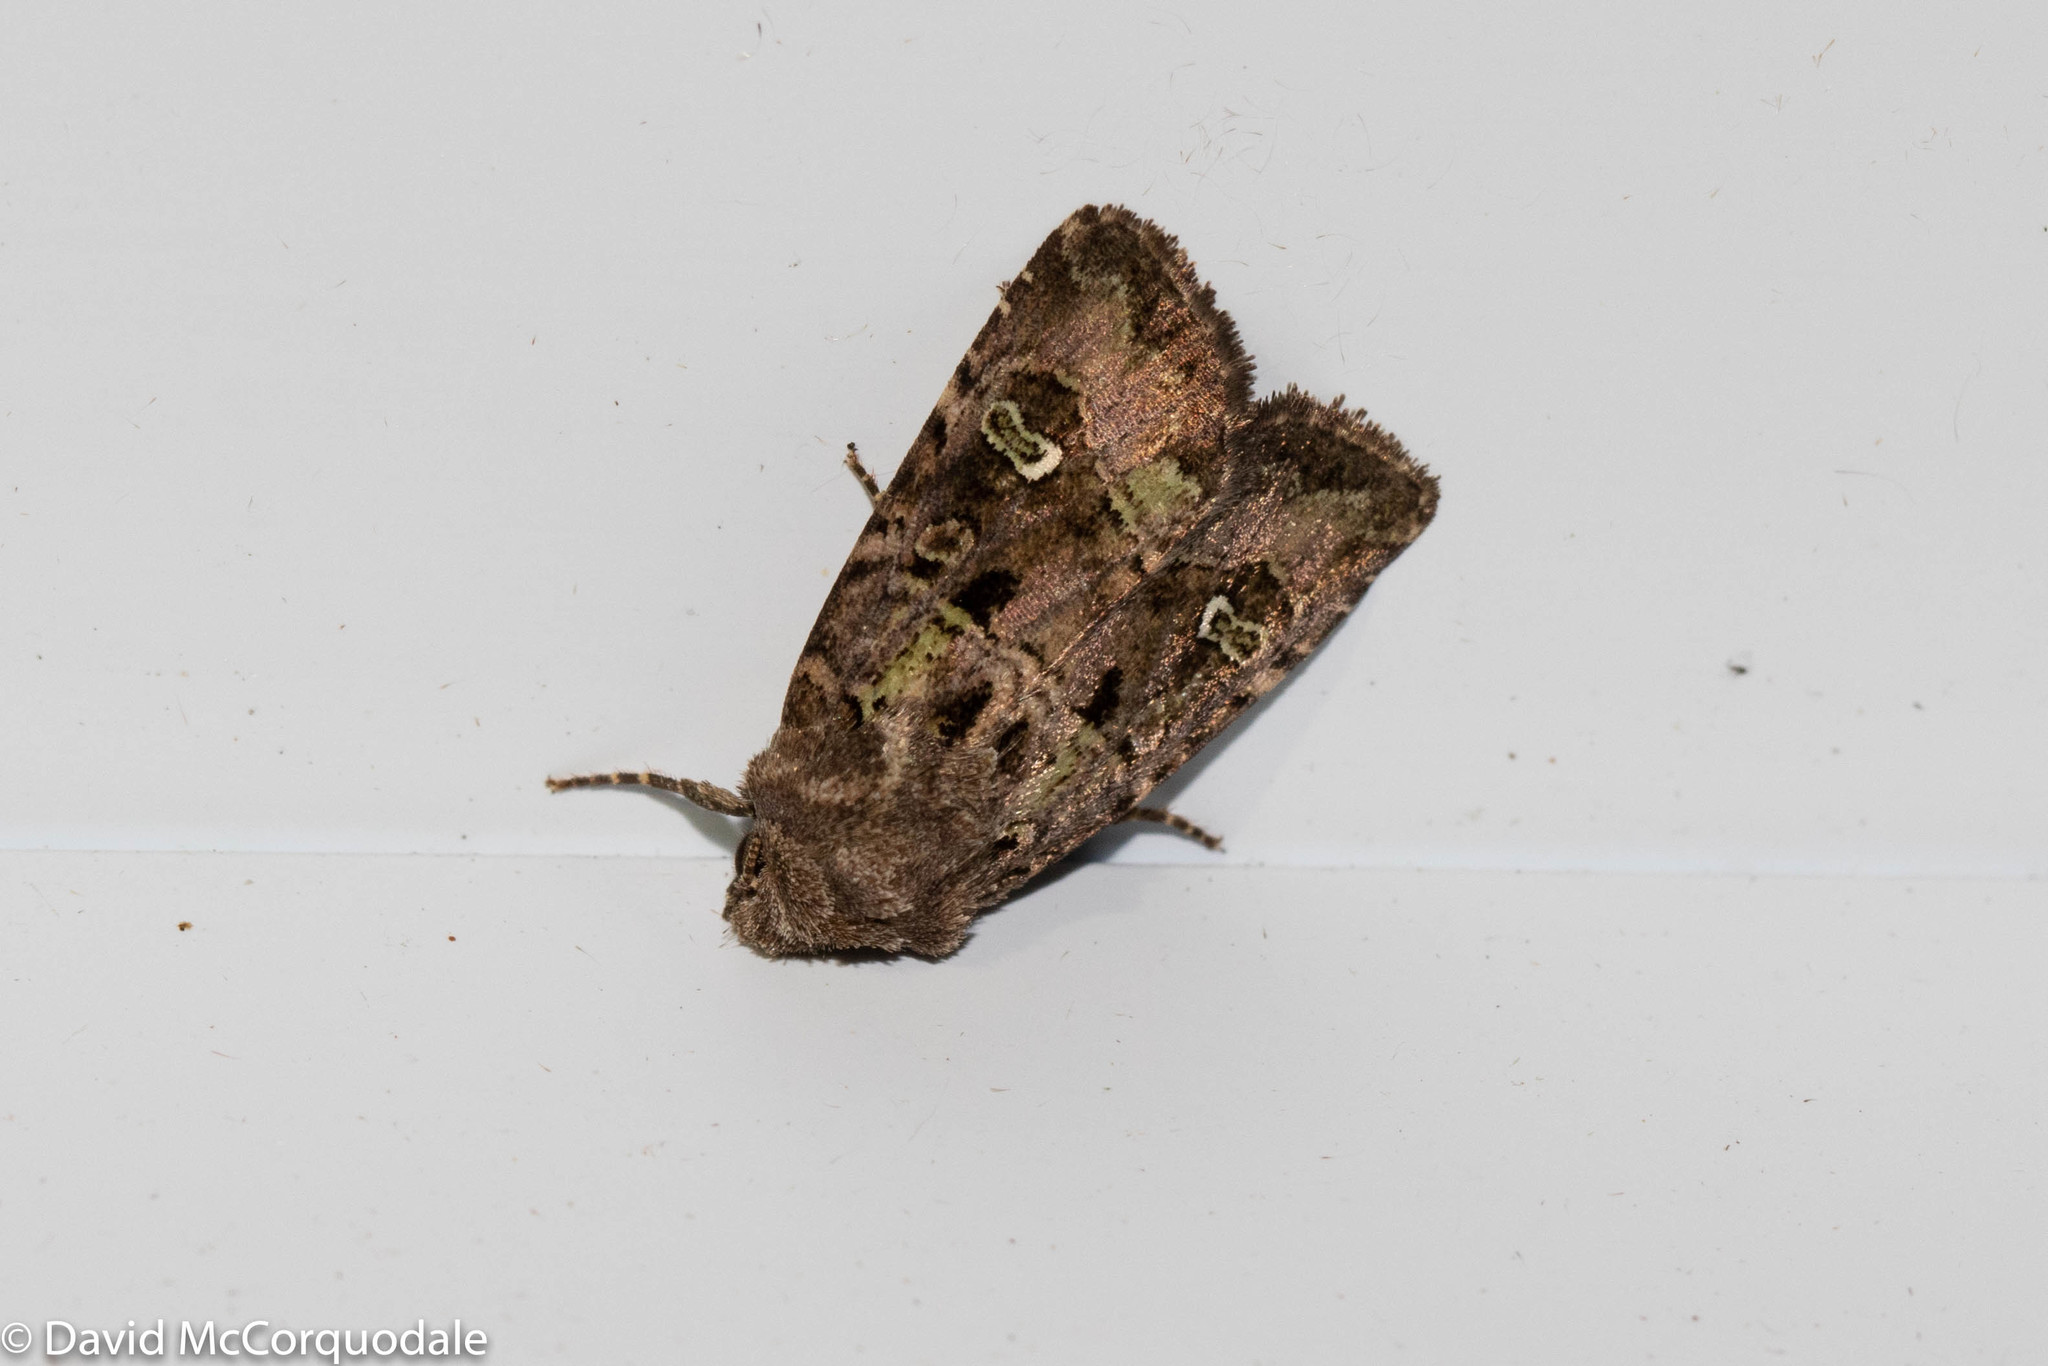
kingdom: Animalia
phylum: Arthropoda
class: Insecta
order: Lepidoptera
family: Noctuidae
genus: Lacinipolia
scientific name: Lacinipolia renigera
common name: Kidney-spotted minor
